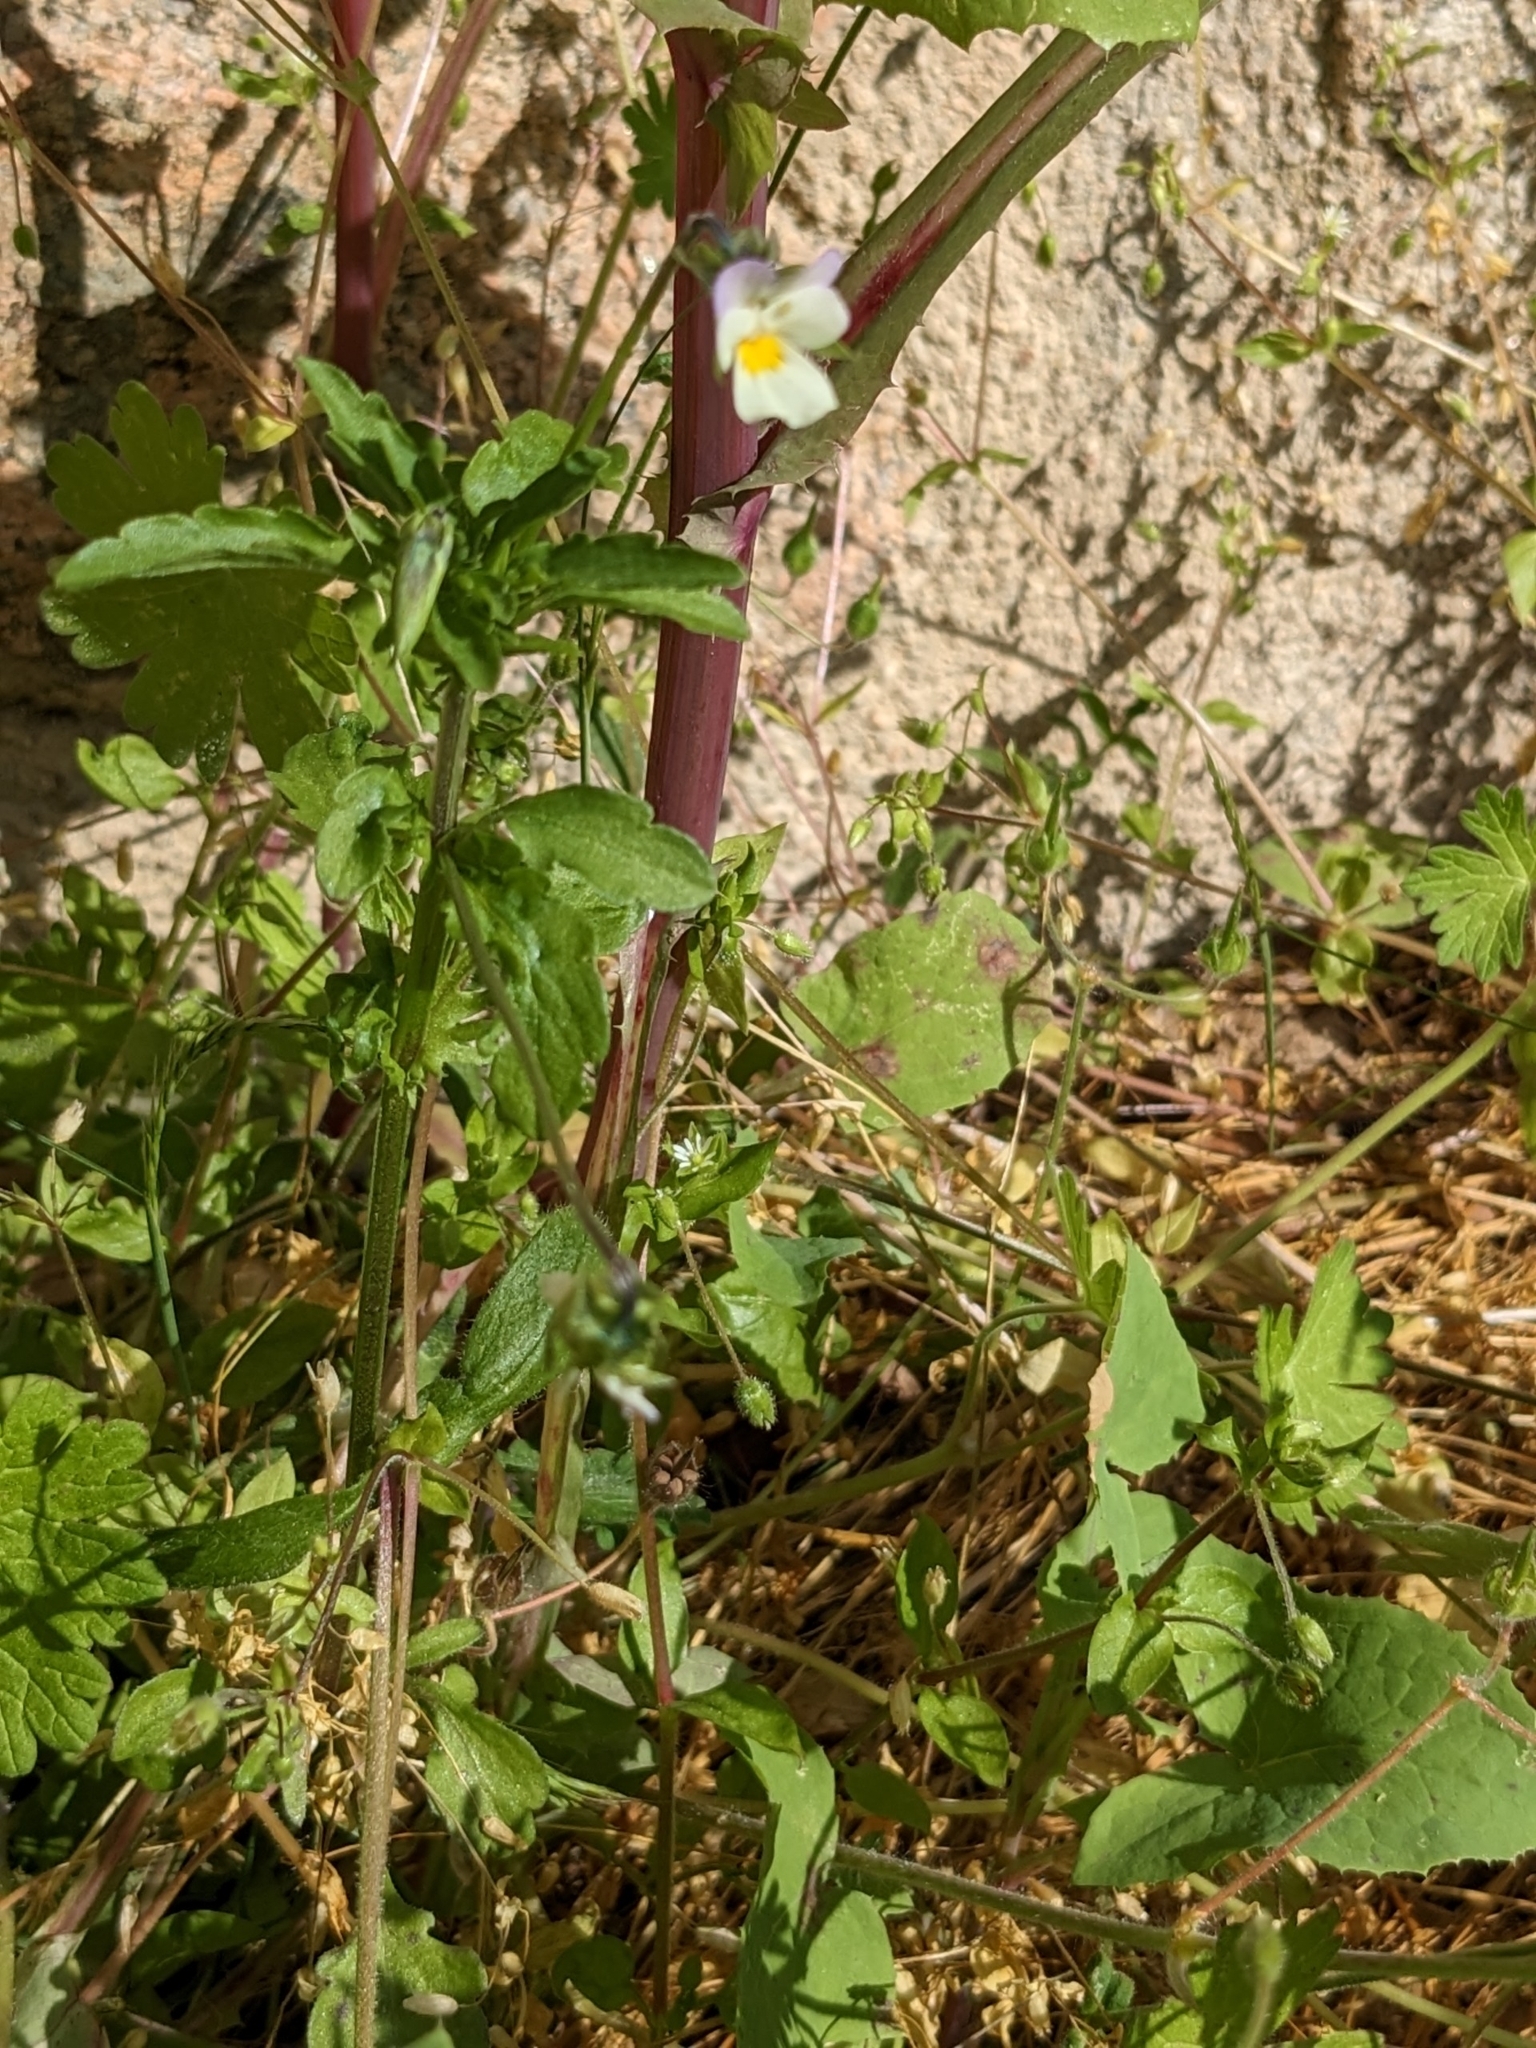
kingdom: Plantae
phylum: Tracheophyta
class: Magnoliopsida
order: Malpighiales
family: Violaceae
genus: Viola
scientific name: Viola arvensis
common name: Field pansy
